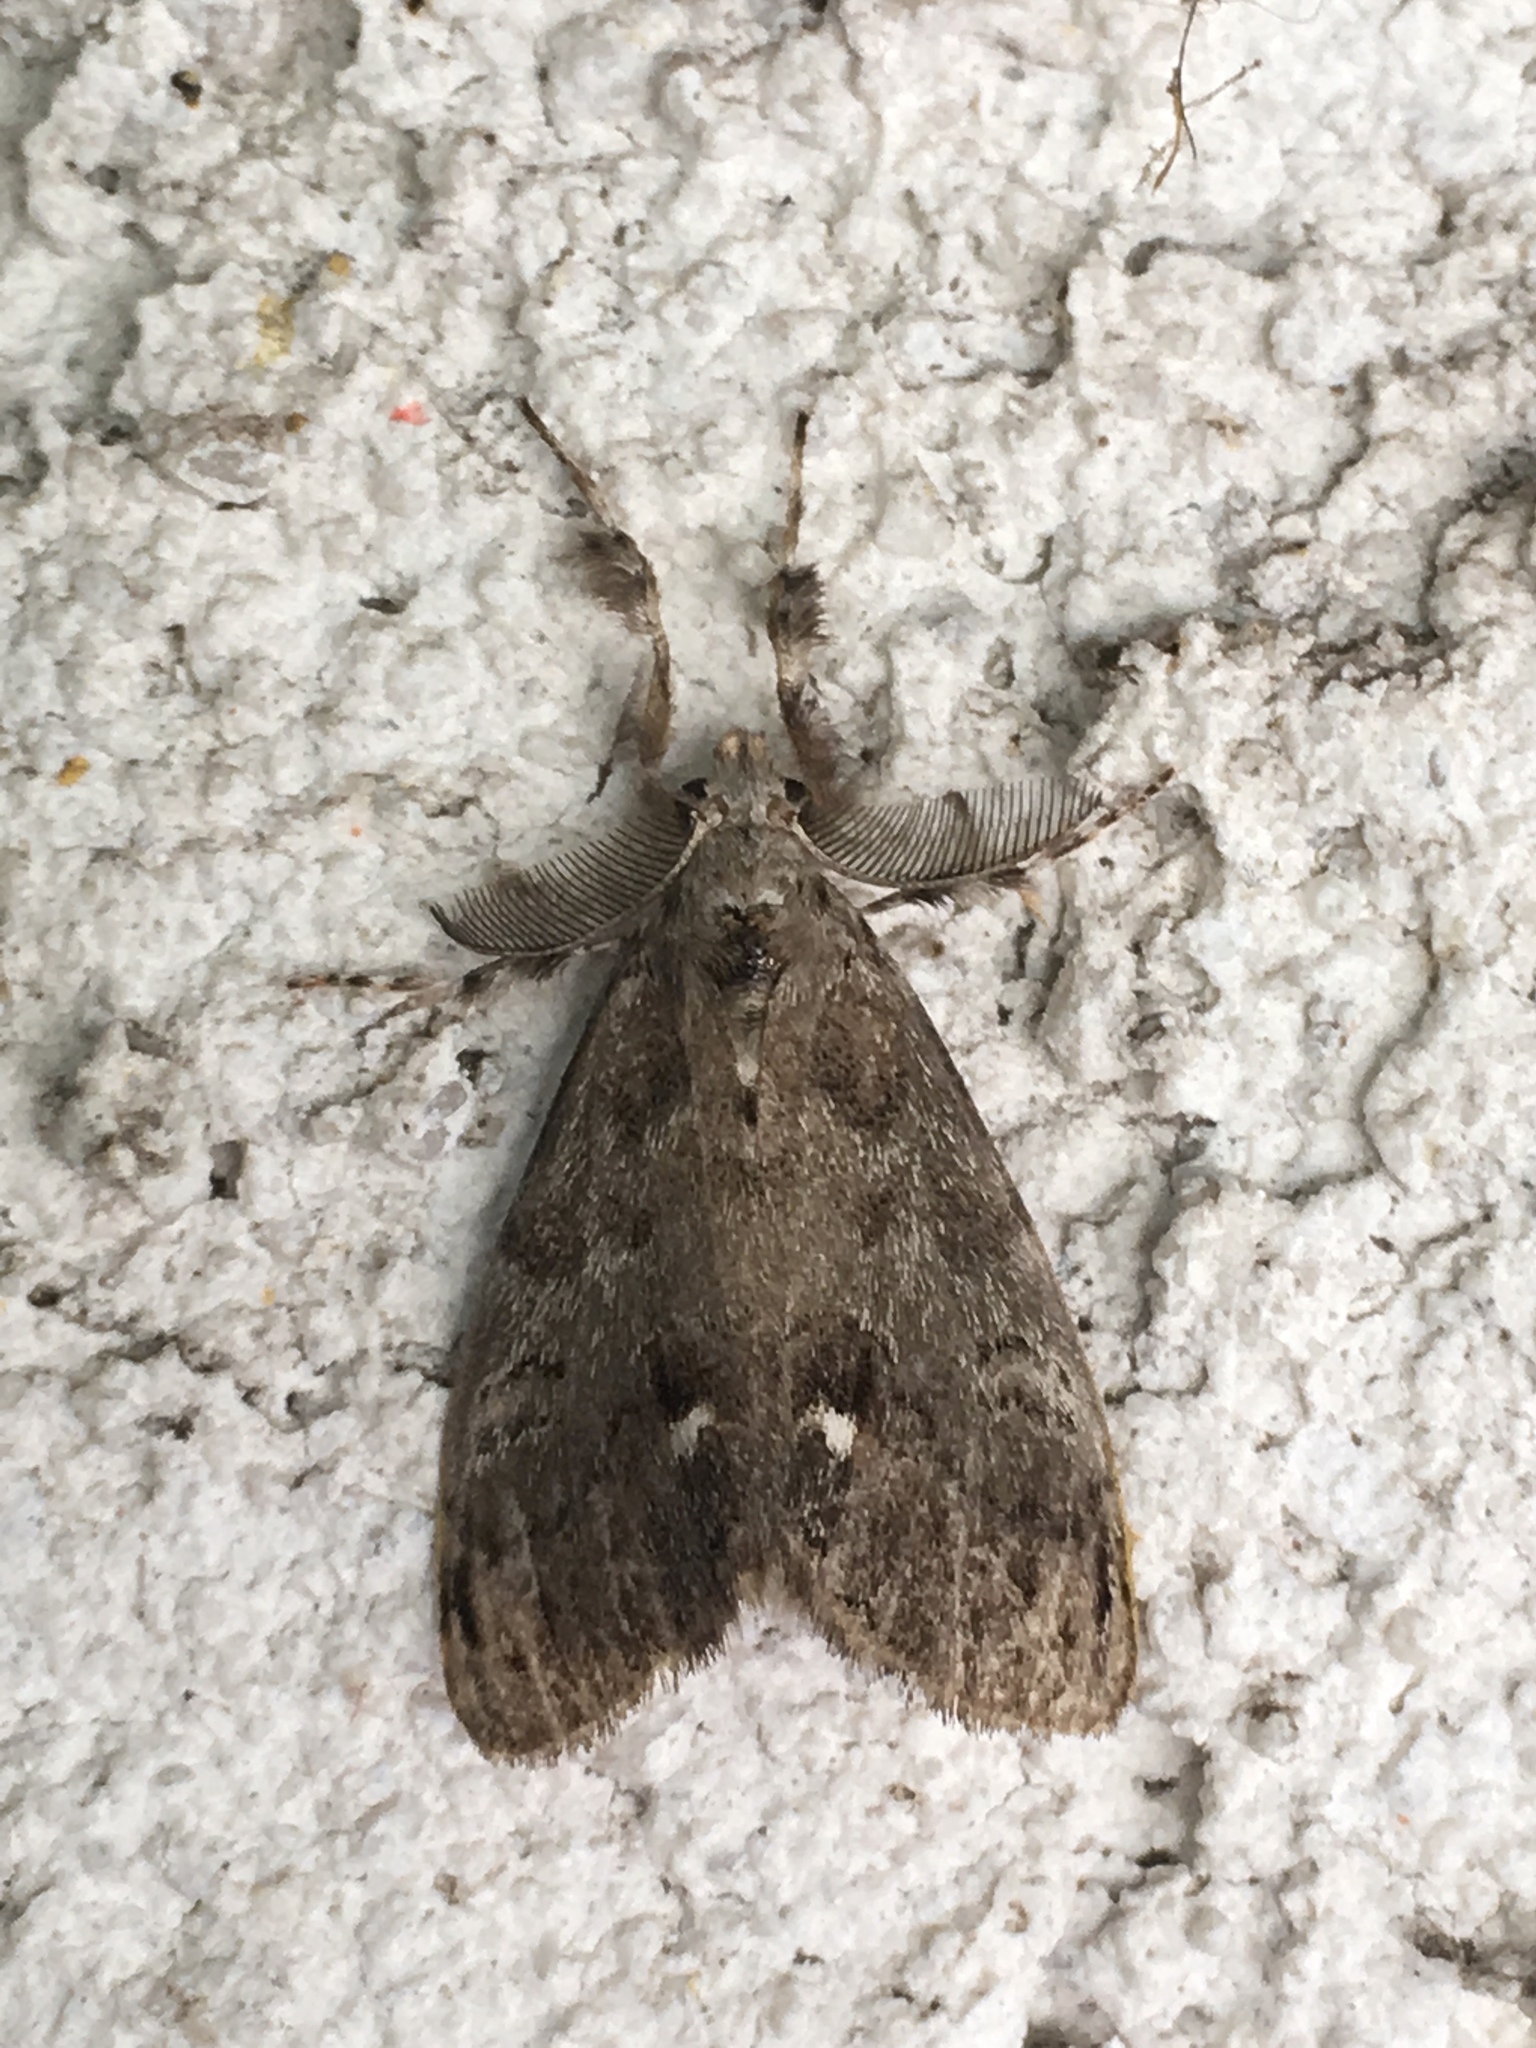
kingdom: Animalia
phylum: Arthropoda
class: Insecta
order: Lepidoptera
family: Erebidae
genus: Orgyia
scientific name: Orgyia leucostigma
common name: White-marked tussock moth
